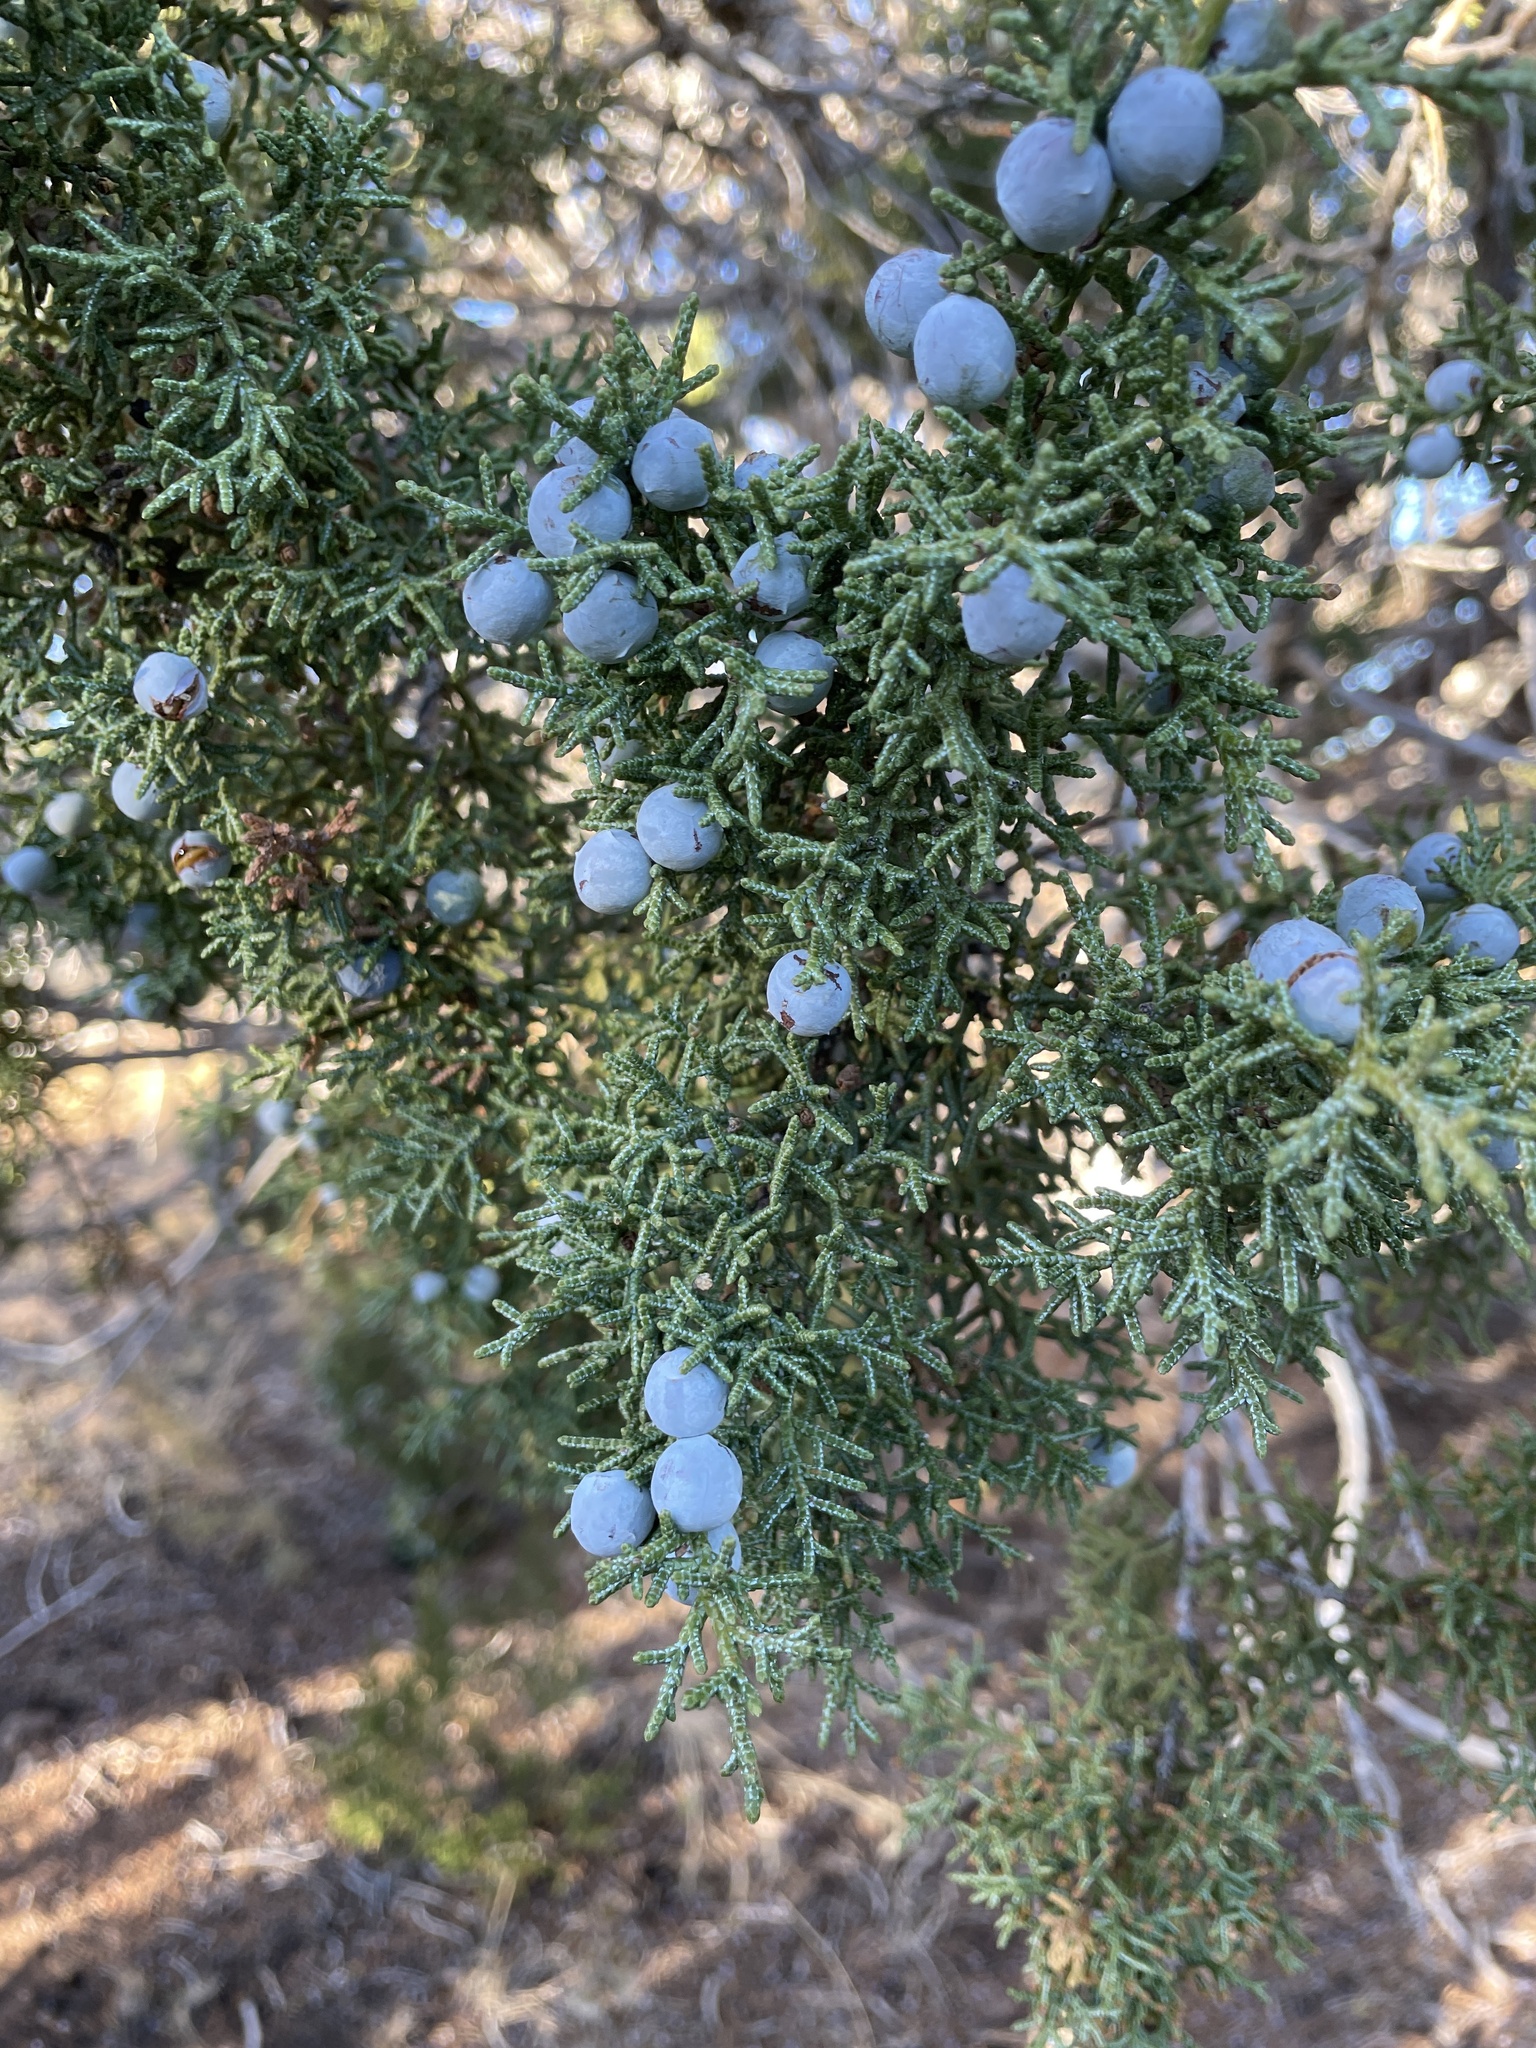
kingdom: Plantae
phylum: Tracheophyta
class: Pinopsida
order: Pinales
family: Cupressaceae
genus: Juniperus
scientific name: Juniperus osteosperma
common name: Utah juniper
